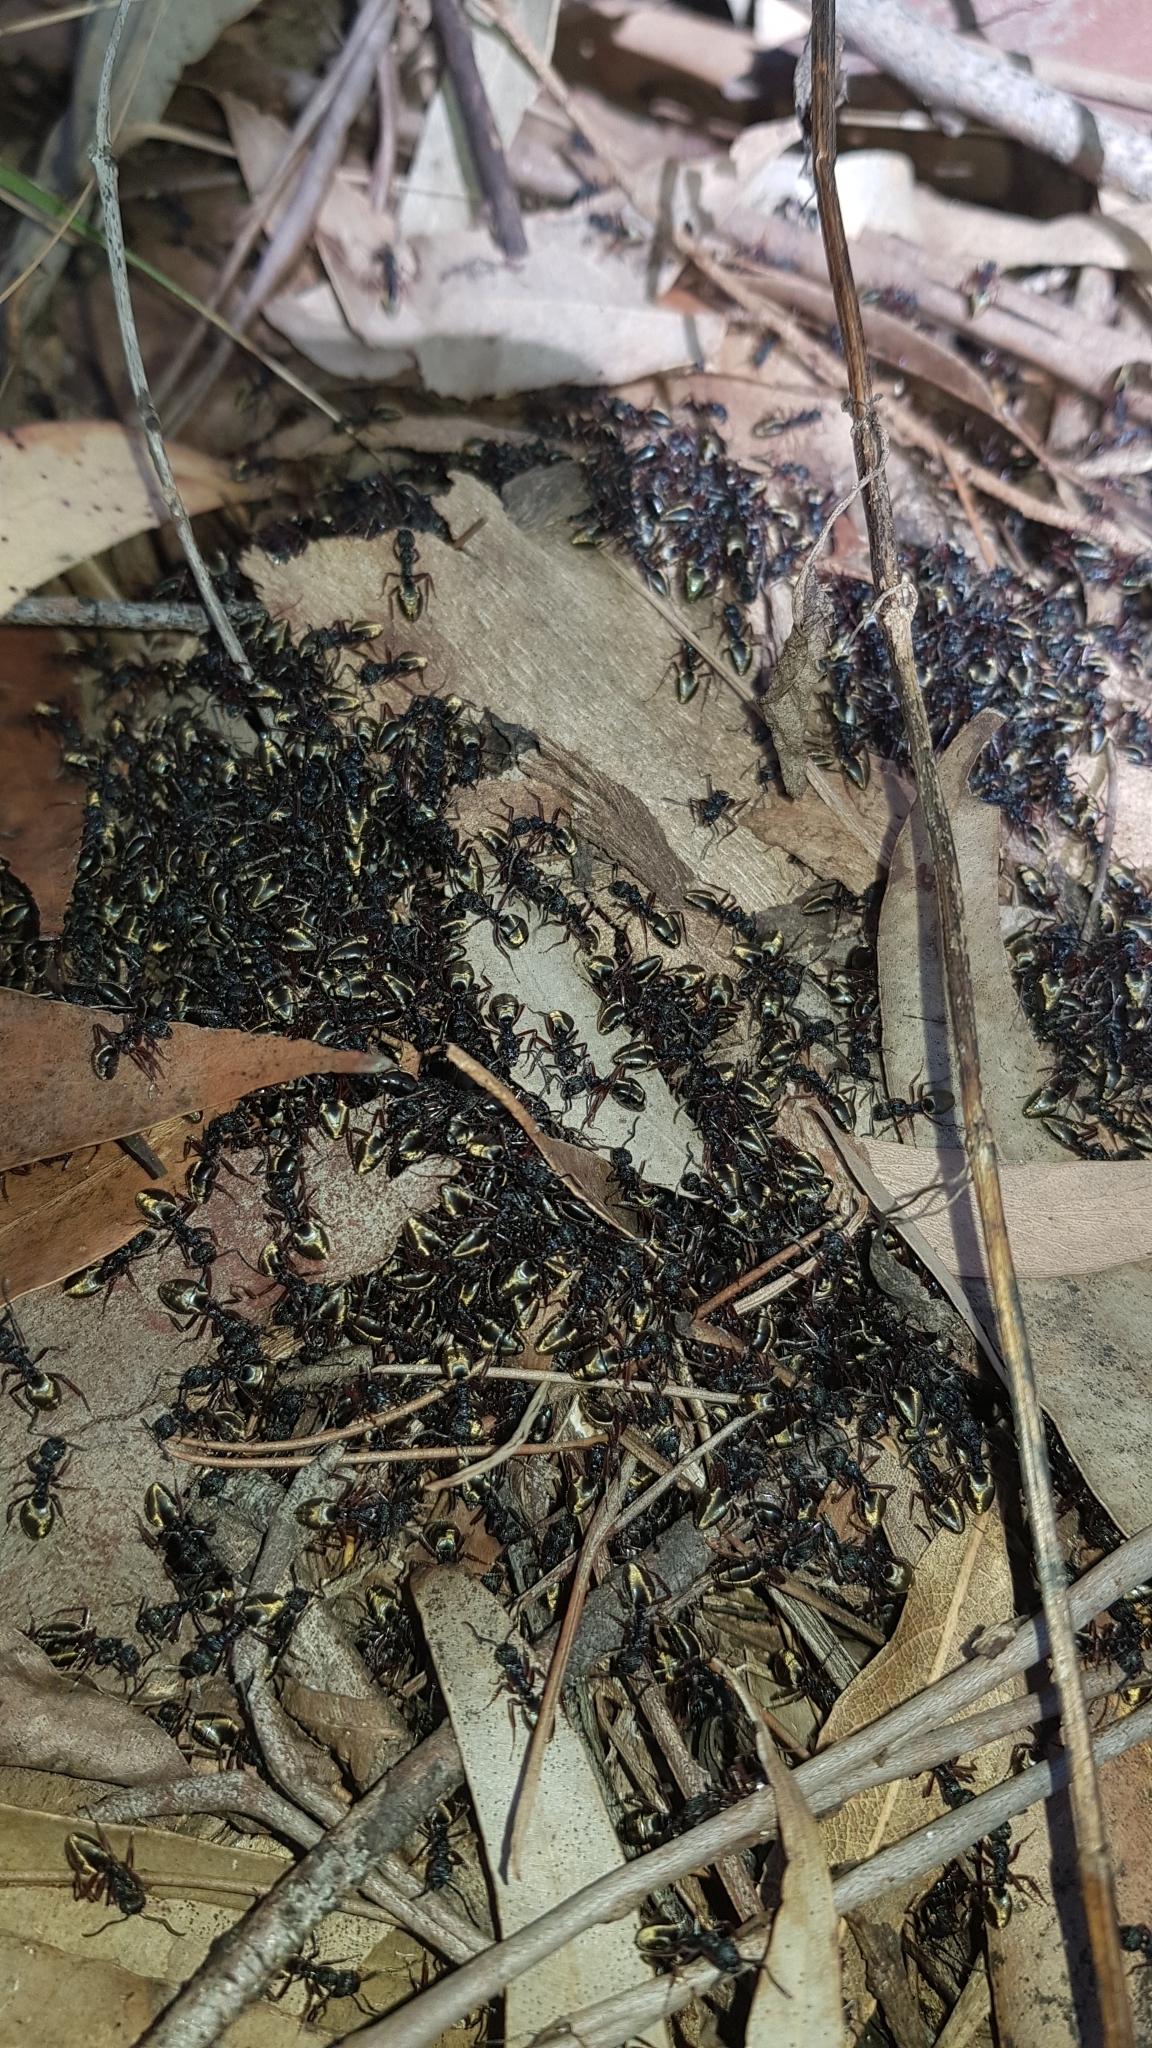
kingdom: Animalia
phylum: Arthropoda
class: Insecta
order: Hymenoptera
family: Formicidae
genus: Dolichoderus
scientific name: Dolichoderus doriae
